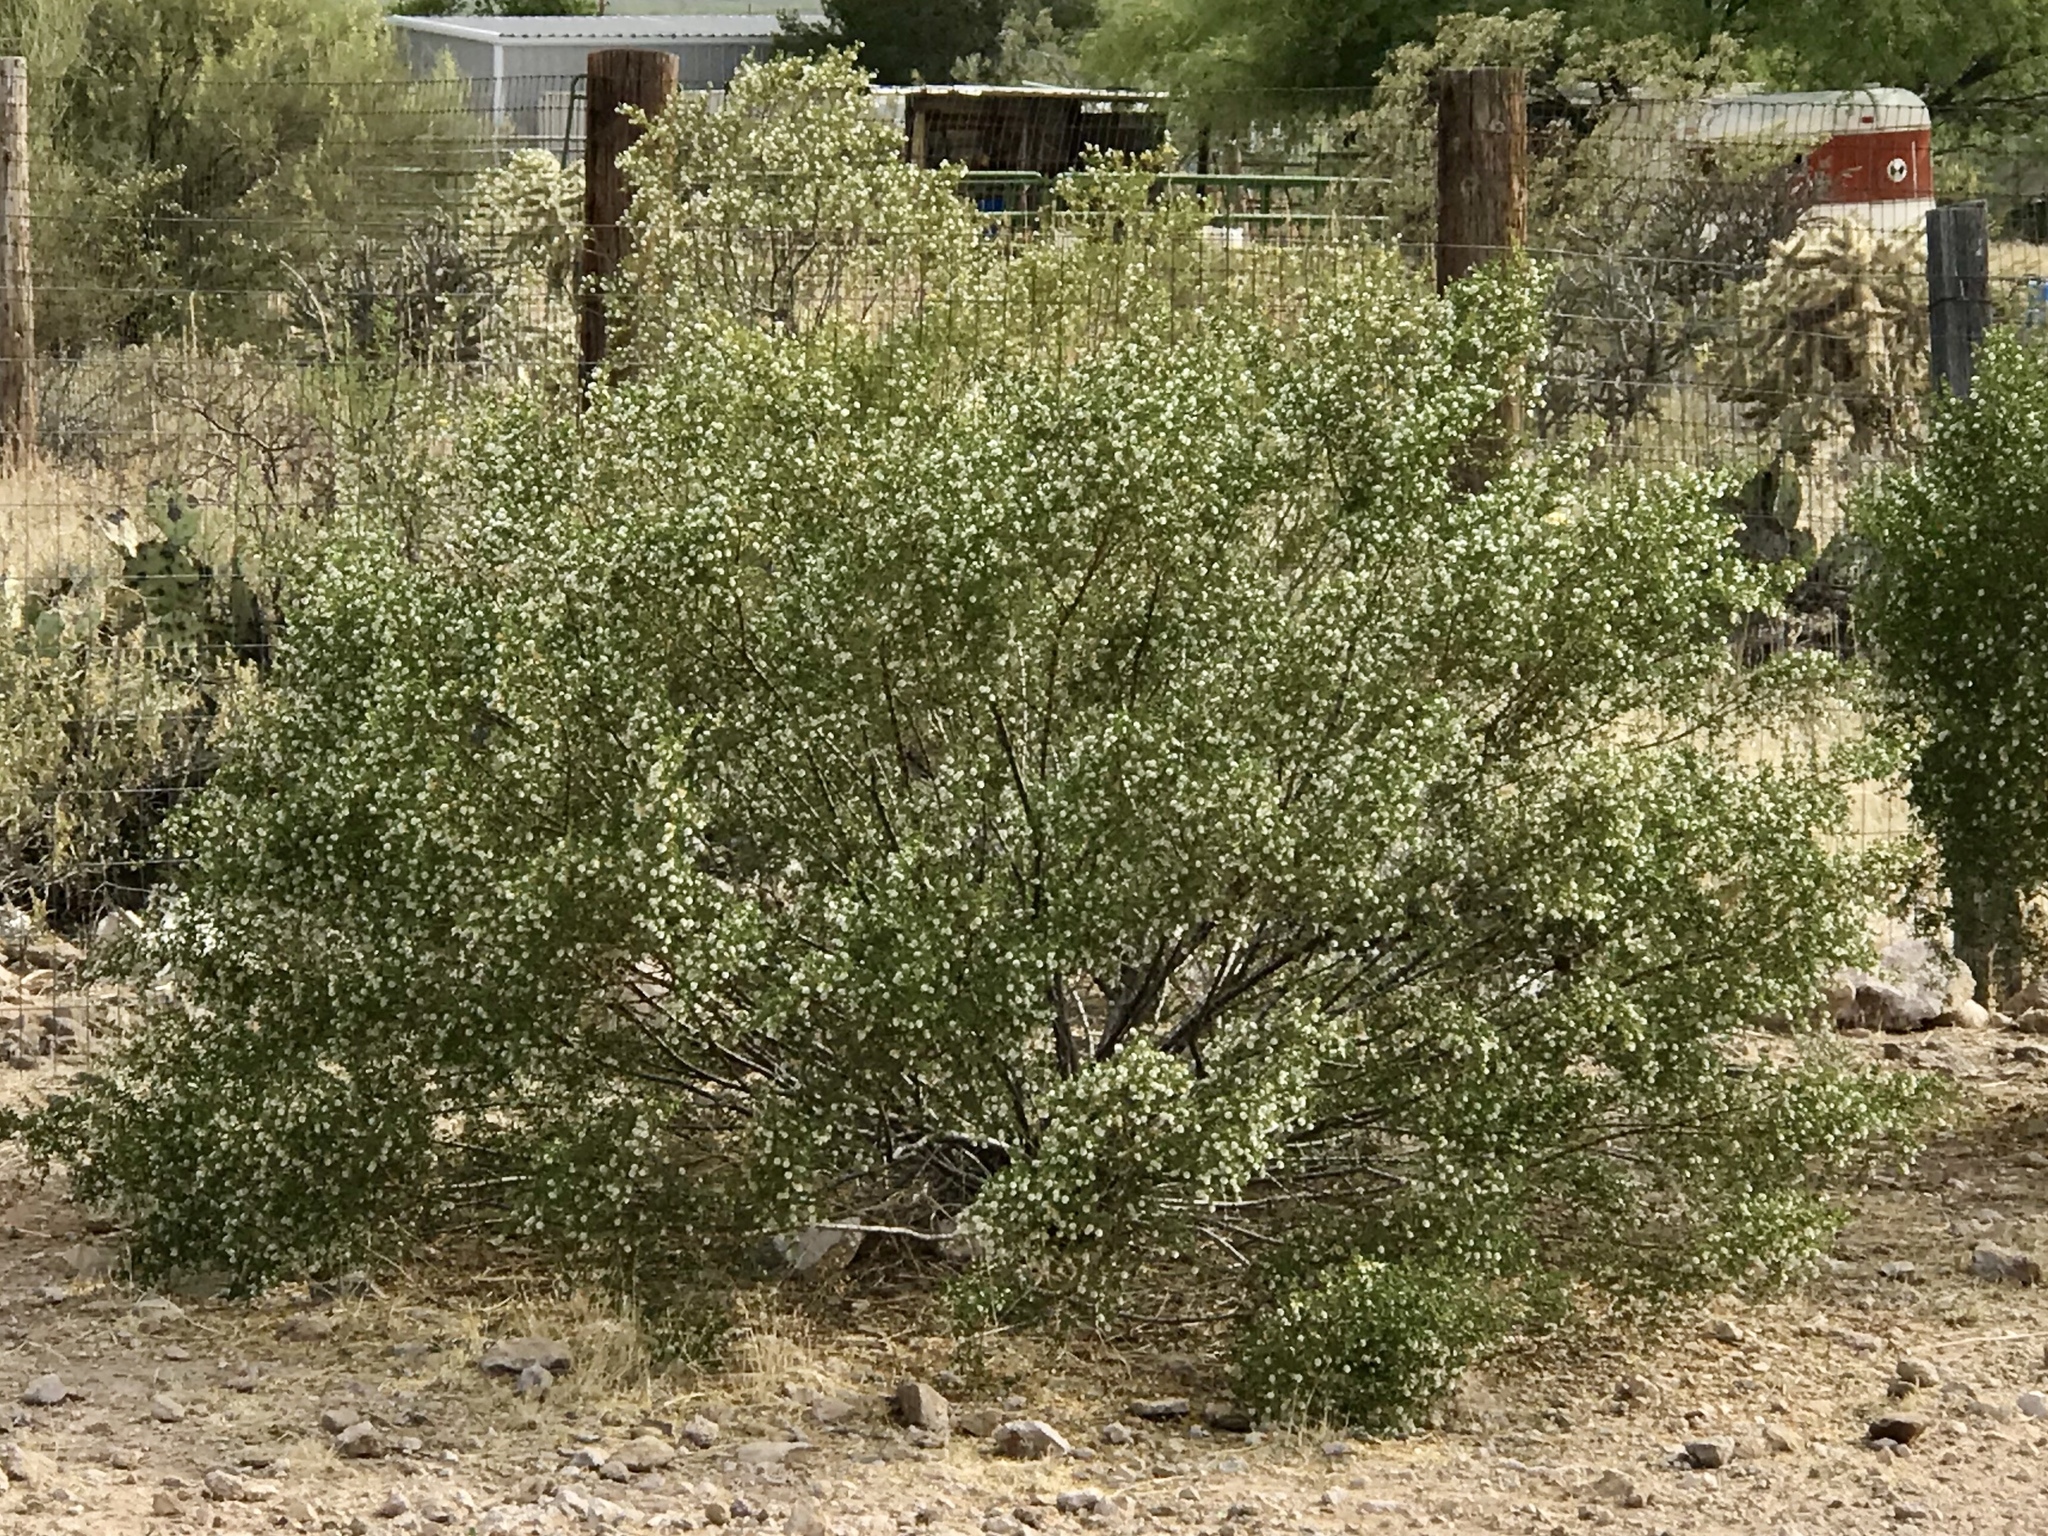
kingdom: Plantae
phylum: Tracheophyta
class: Magnoliopsida
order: Zygophyllales
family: Zygophyllaceae
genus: Larrea
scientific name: Larrea tridentata
